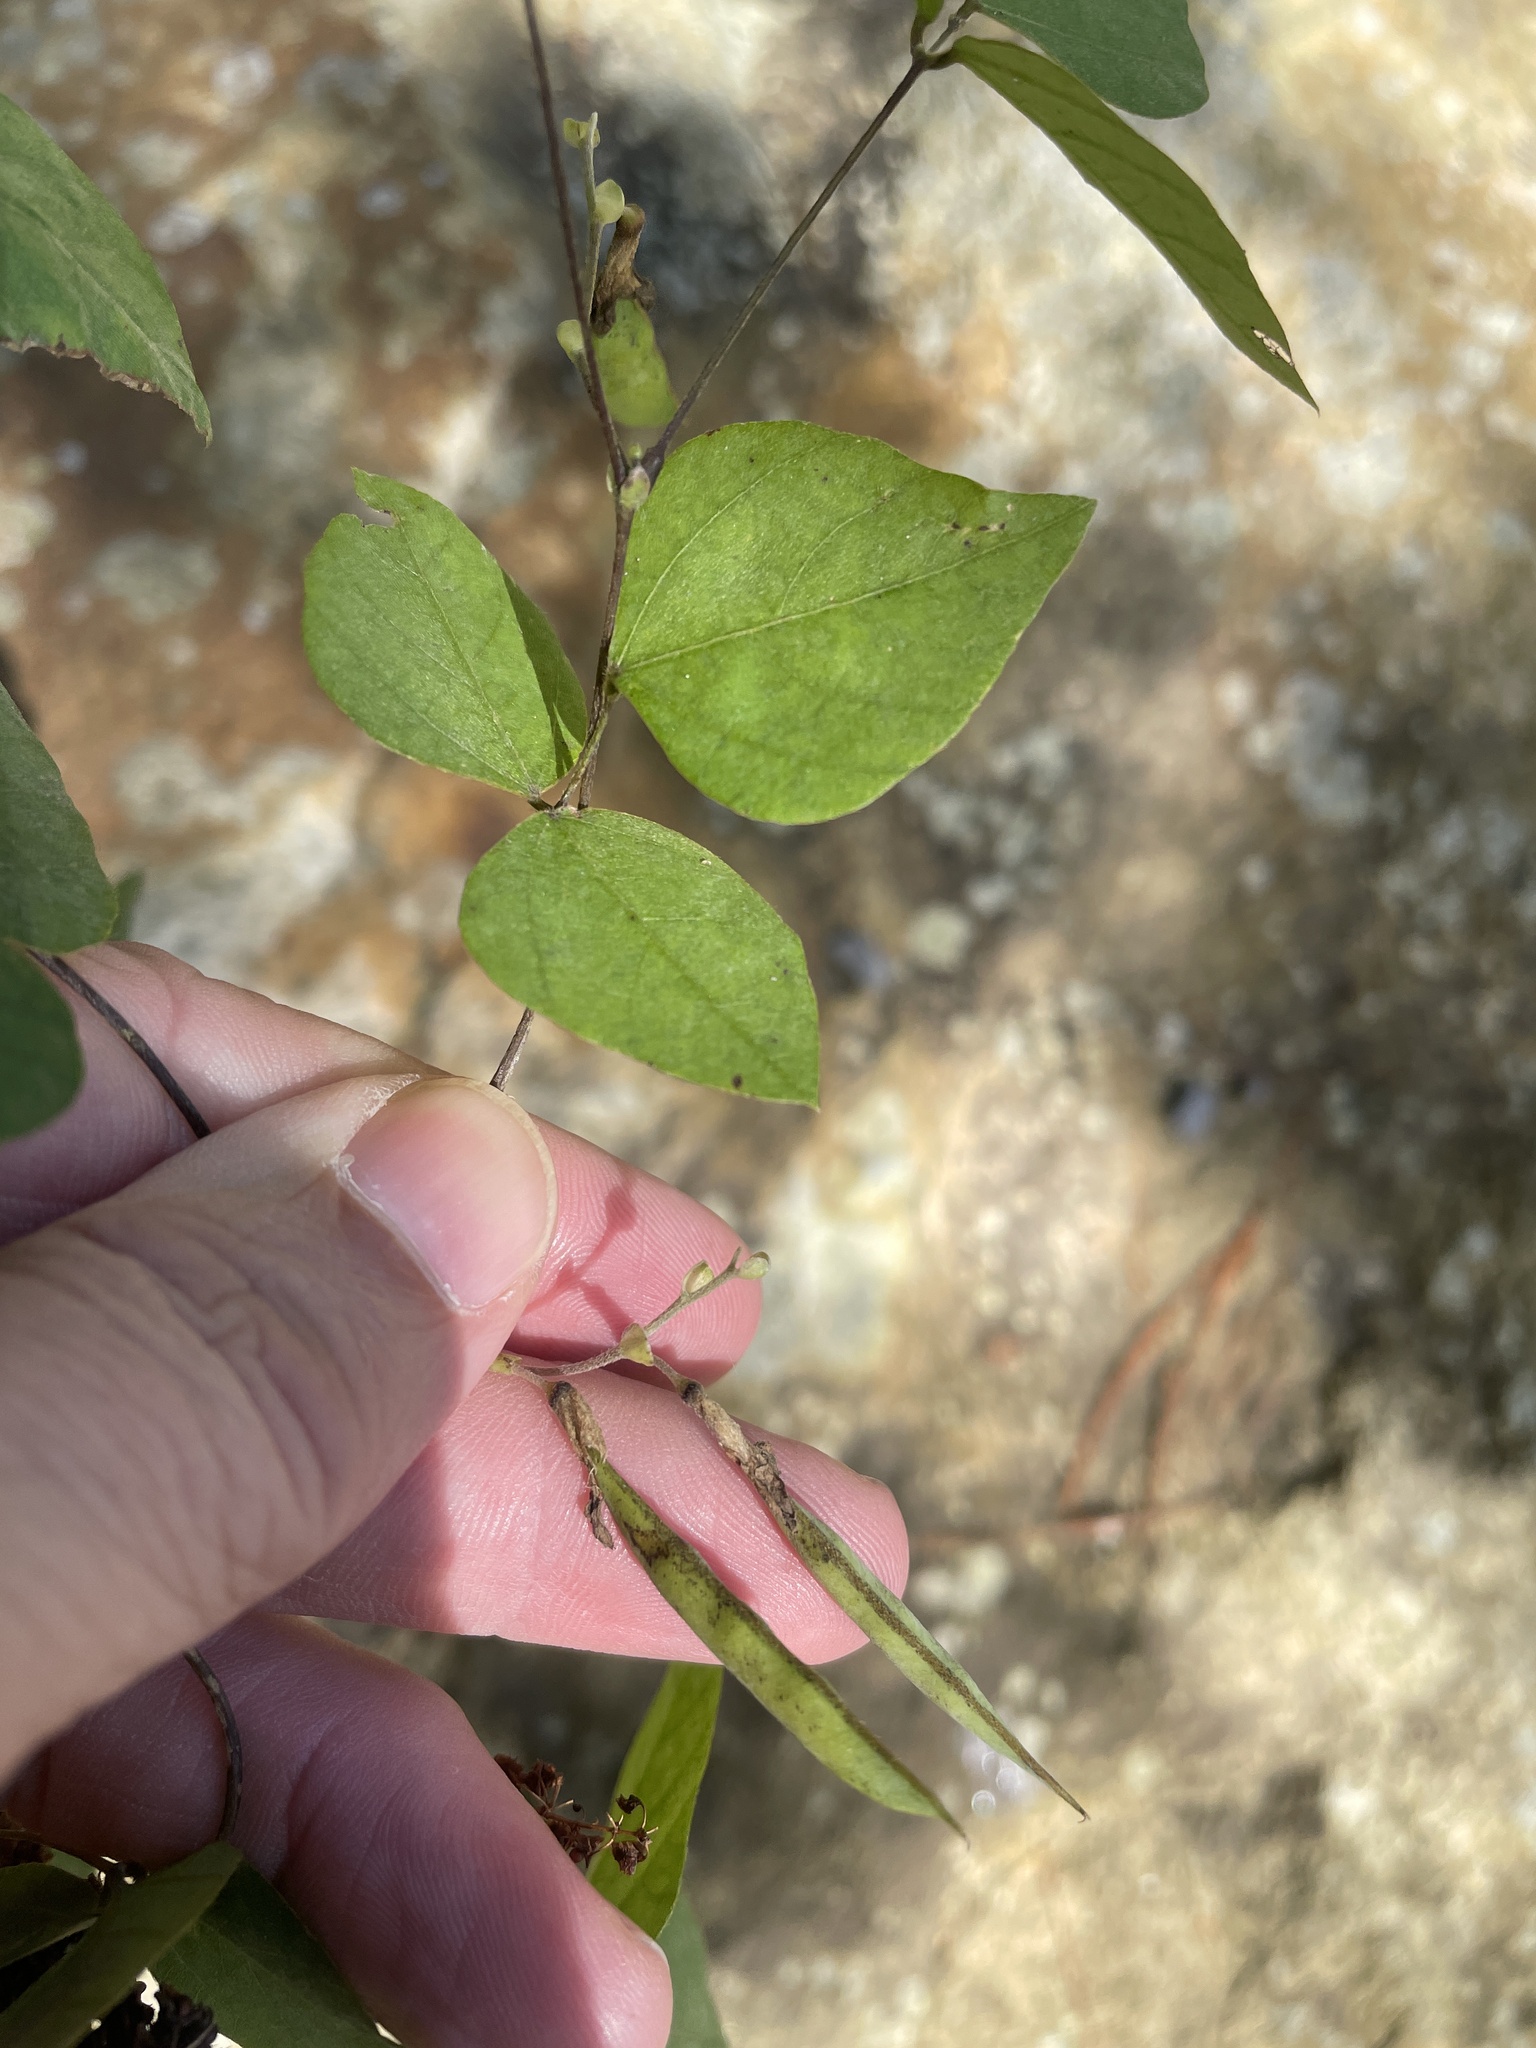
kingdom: Plantae
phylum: Tracheophyta
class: Magnoliopsida
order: Fabales
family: Fabaceae
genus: Amphicarpaea
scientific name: Amphicarpaea bracteata
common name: American hog peanut
